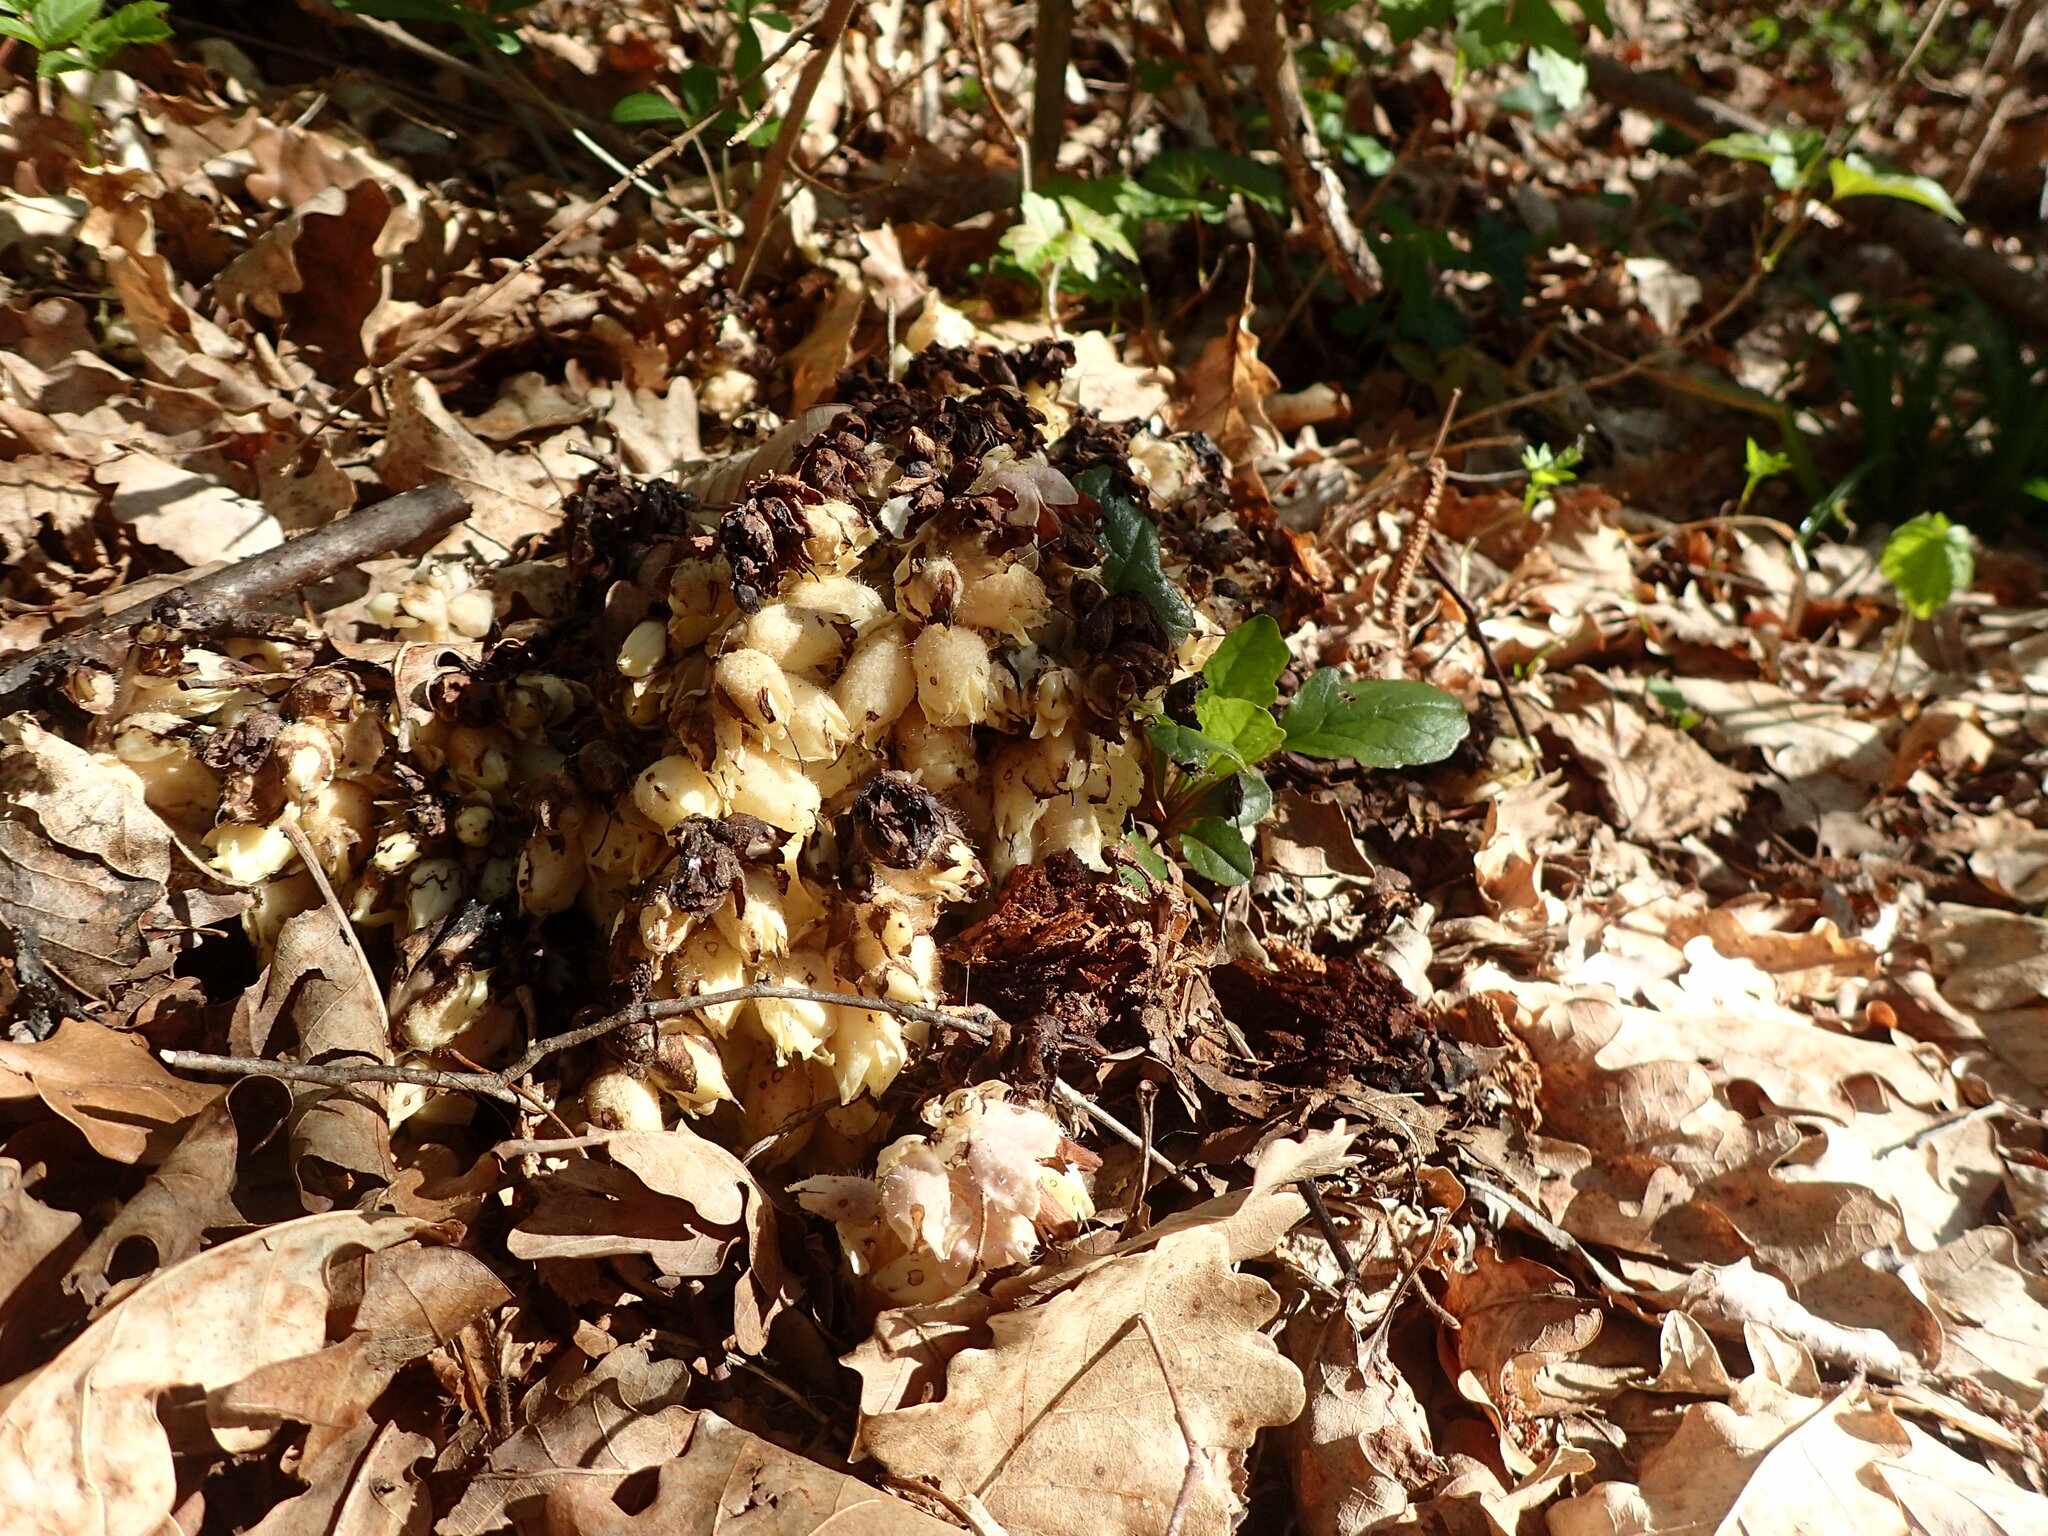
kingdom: Plantae
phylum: Tracheophyta
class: Magnoliopsida
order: Lamiales
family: Orobanchaceae
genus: Lathraea
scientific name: Lathraea squamaria
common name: Toothwort
